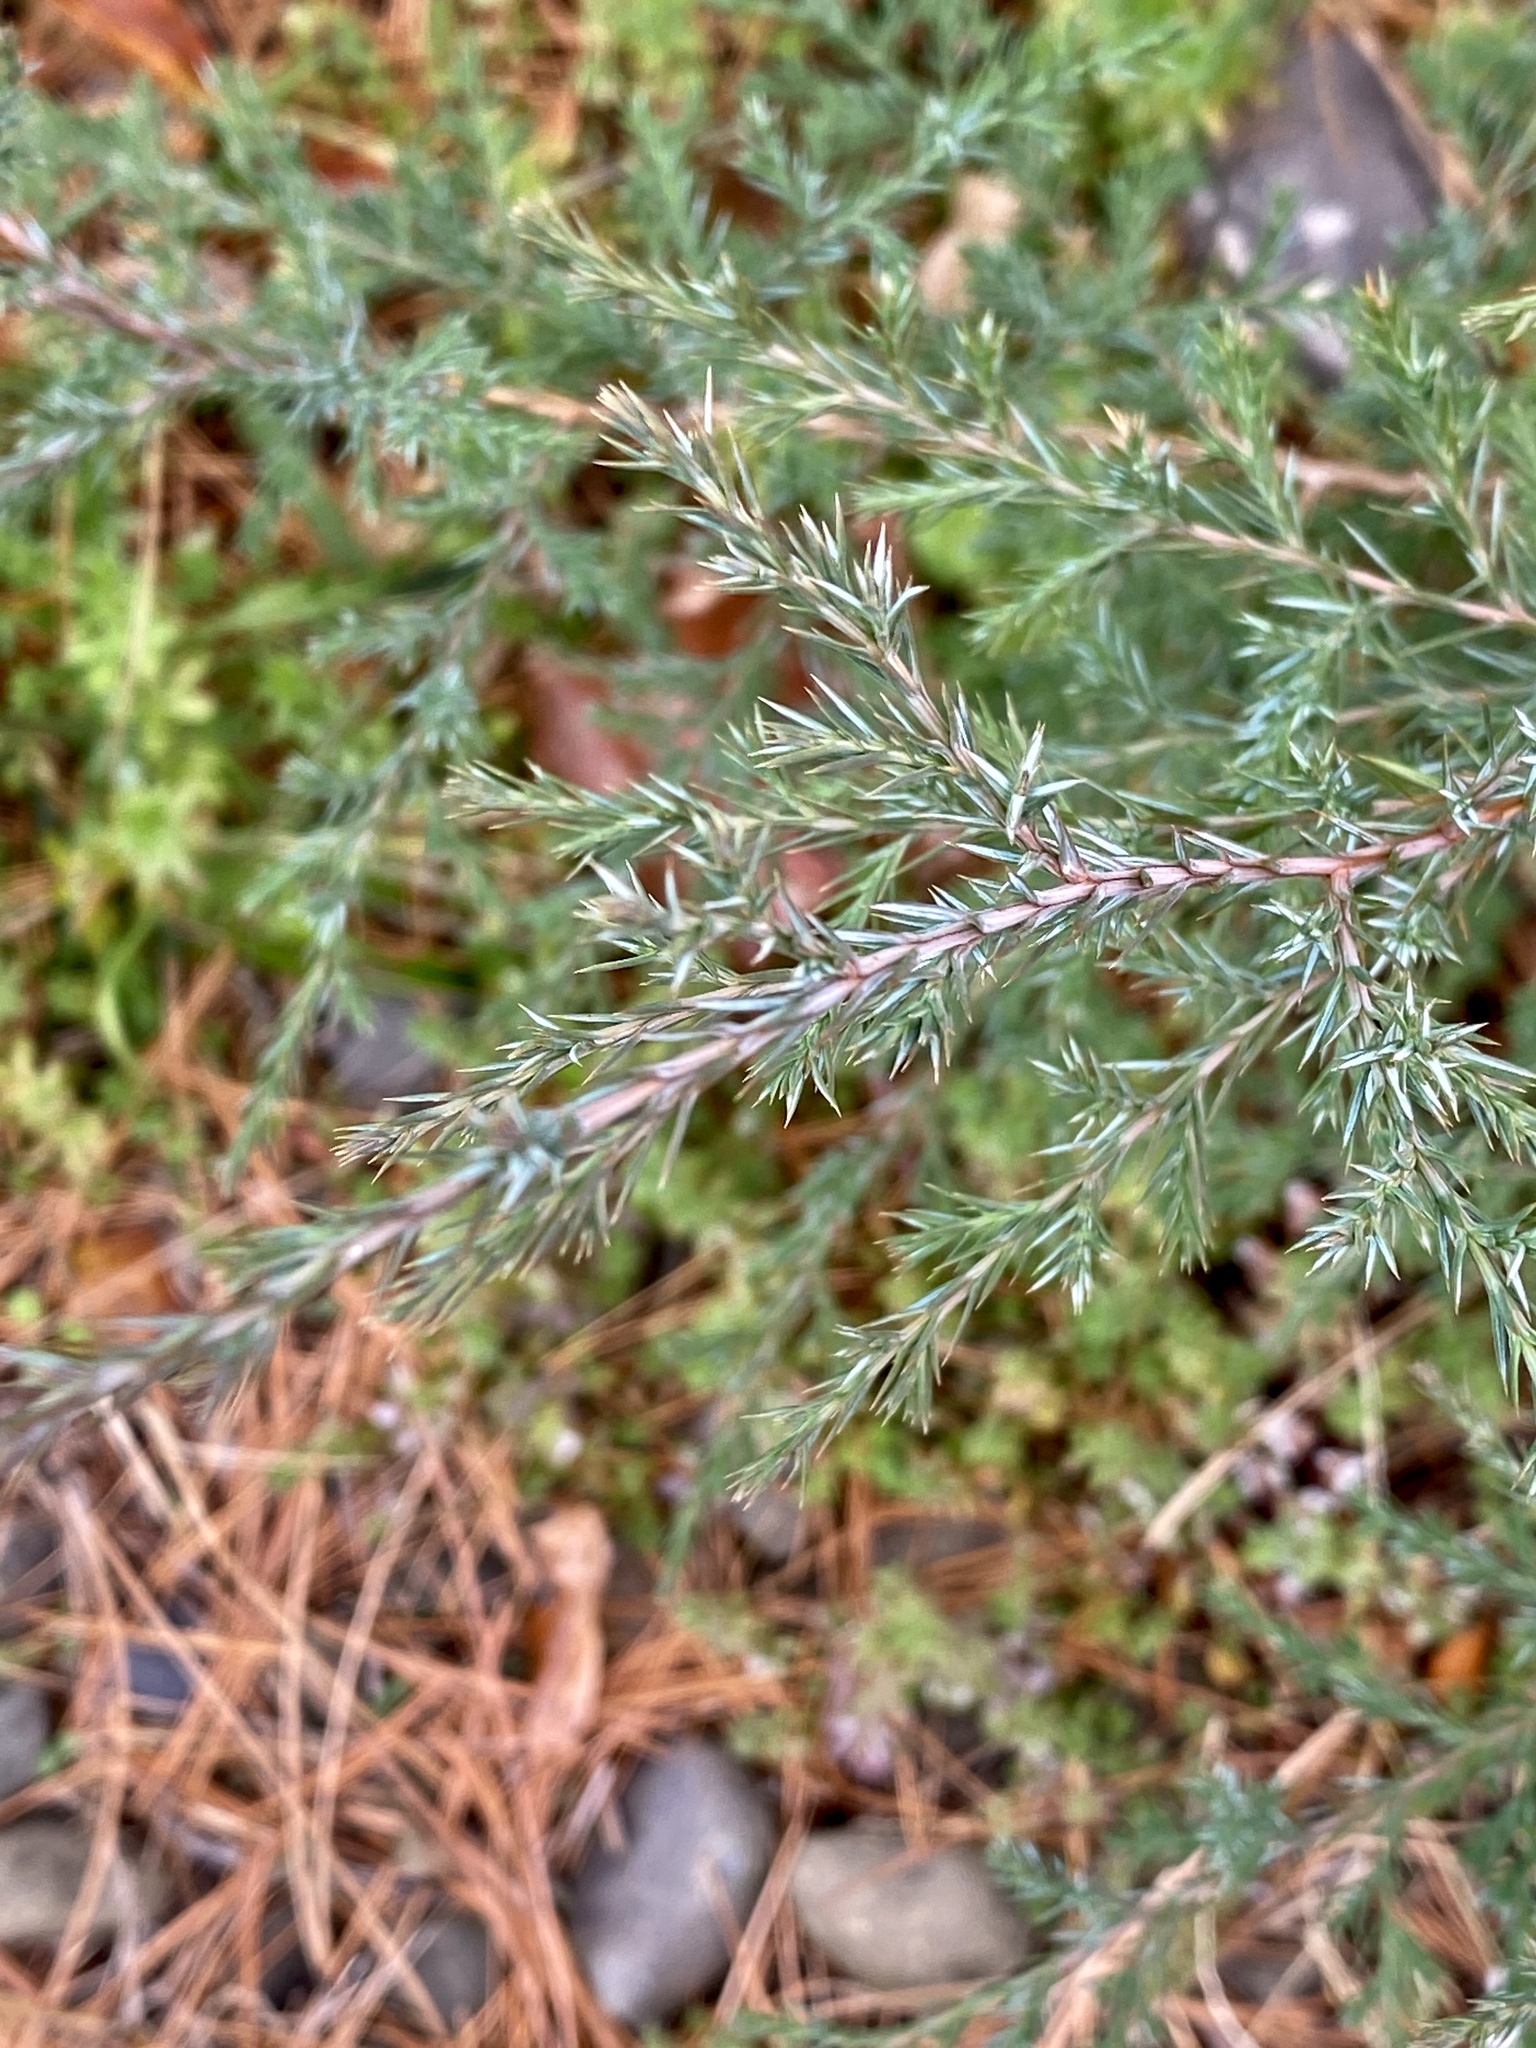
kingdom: Plantae
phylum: Tracheophyta
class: Pinopsida
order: Pinales
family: Cupressaceae
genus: Juniperus
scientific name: Juniperus virginiana
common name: Red juniper
